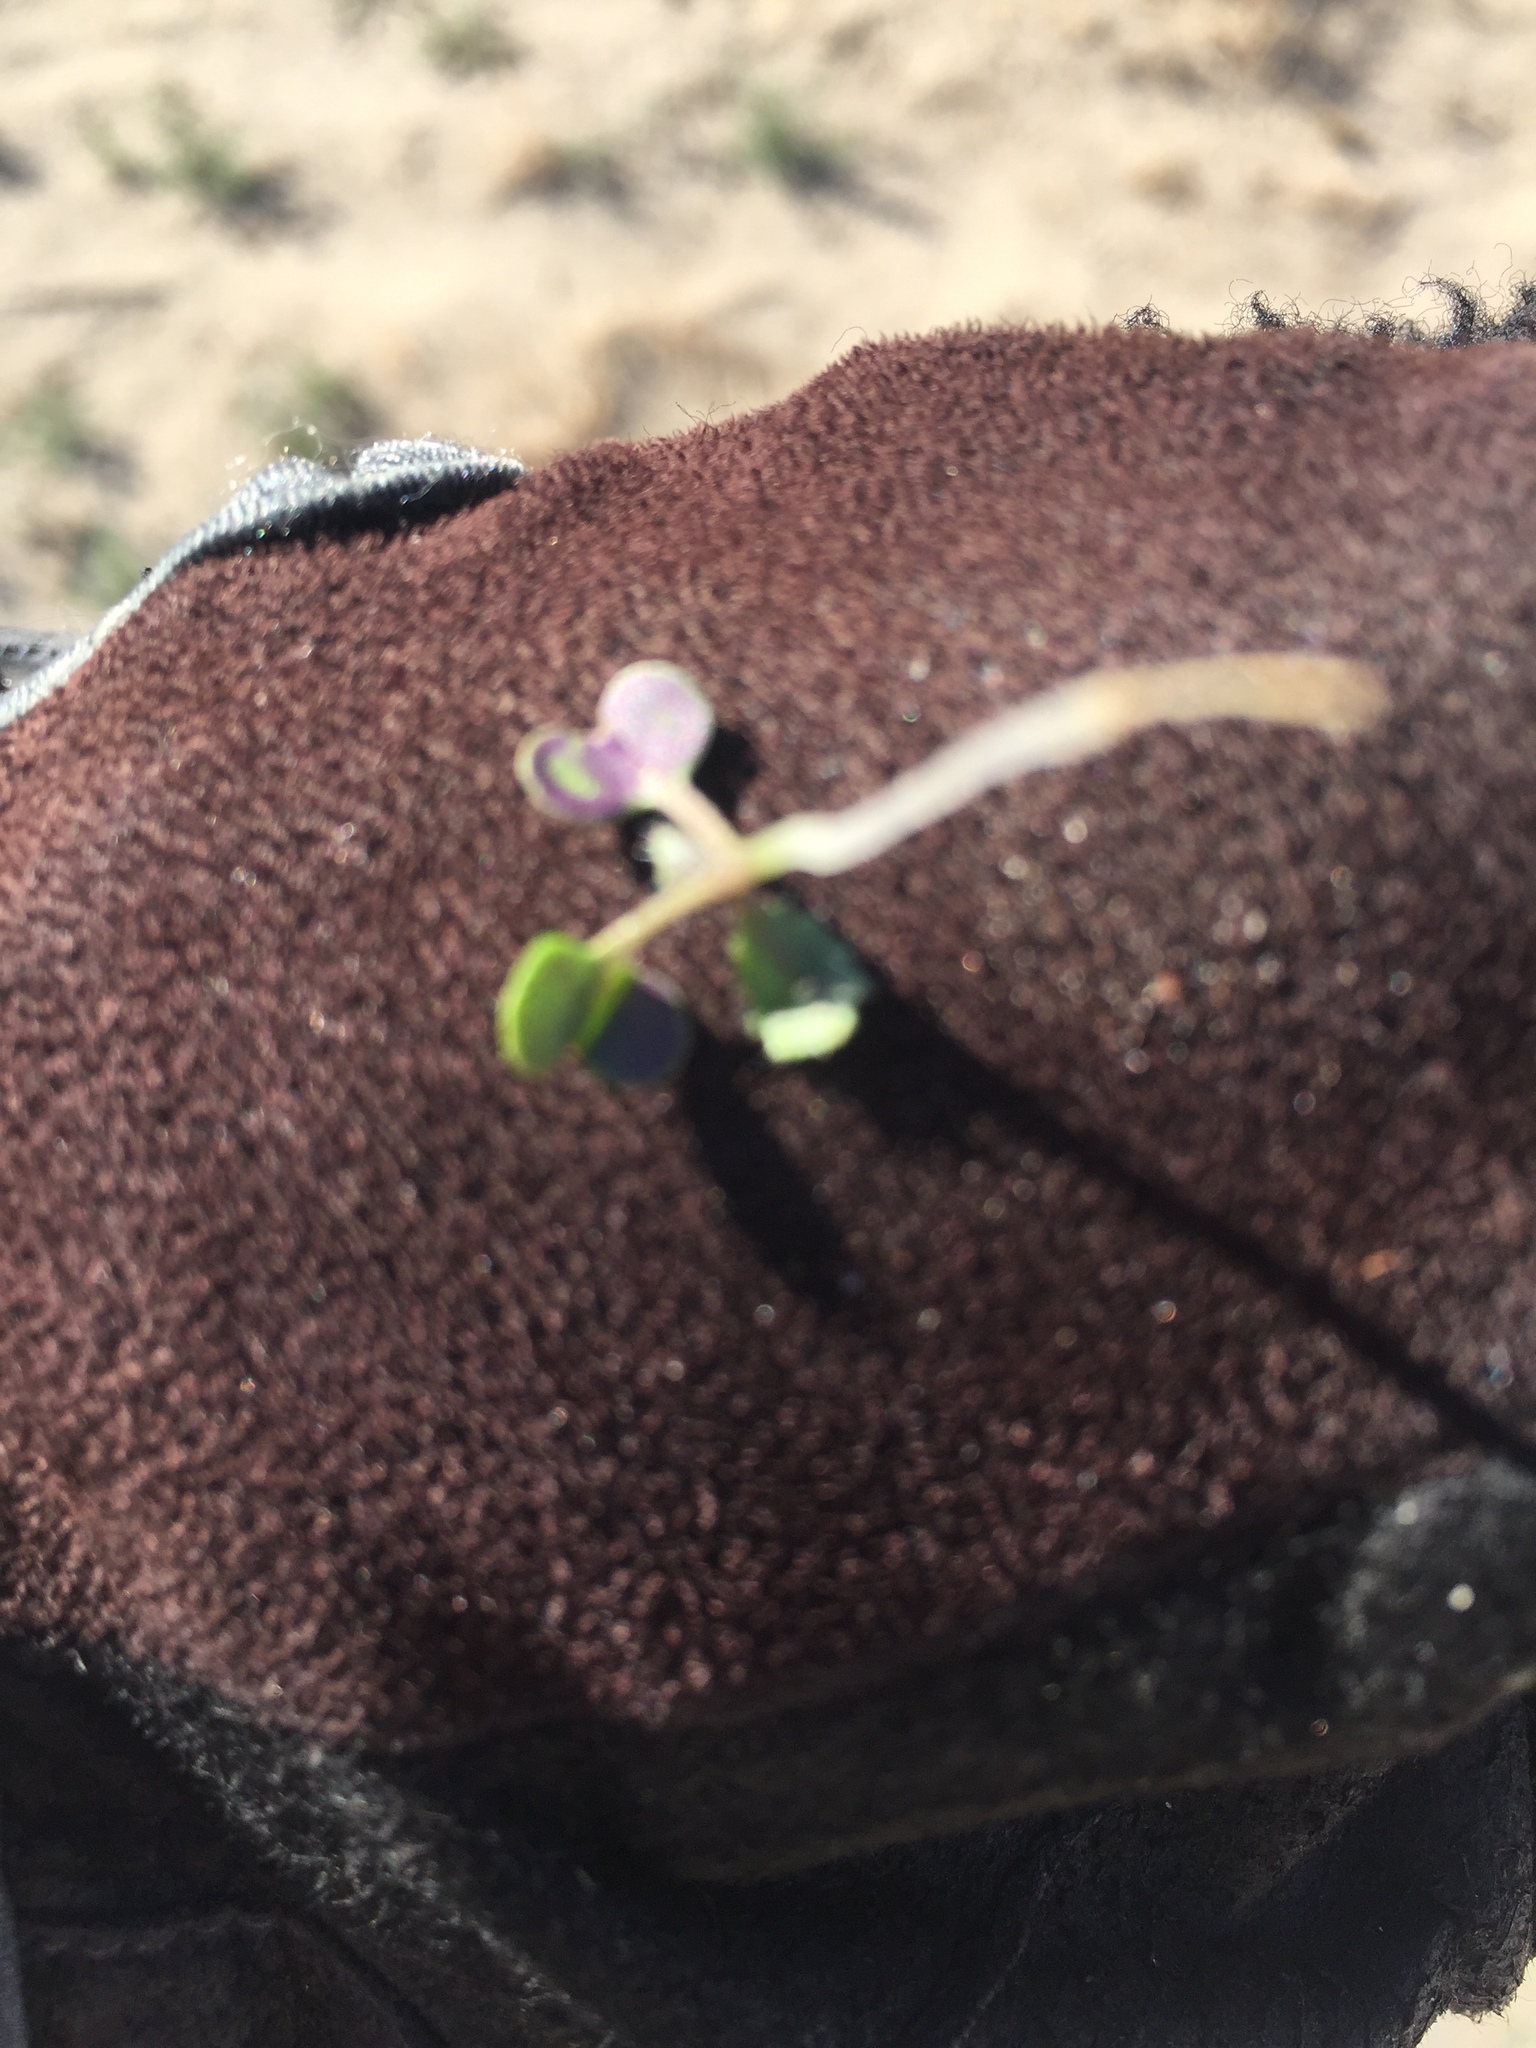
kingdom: Plantae
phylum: Tracheophyta
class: Magnoliopsida
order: Brassicales
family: Brassicaceae
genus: Brassica
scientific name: Brassica tournefortii
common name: Pale cabbage
